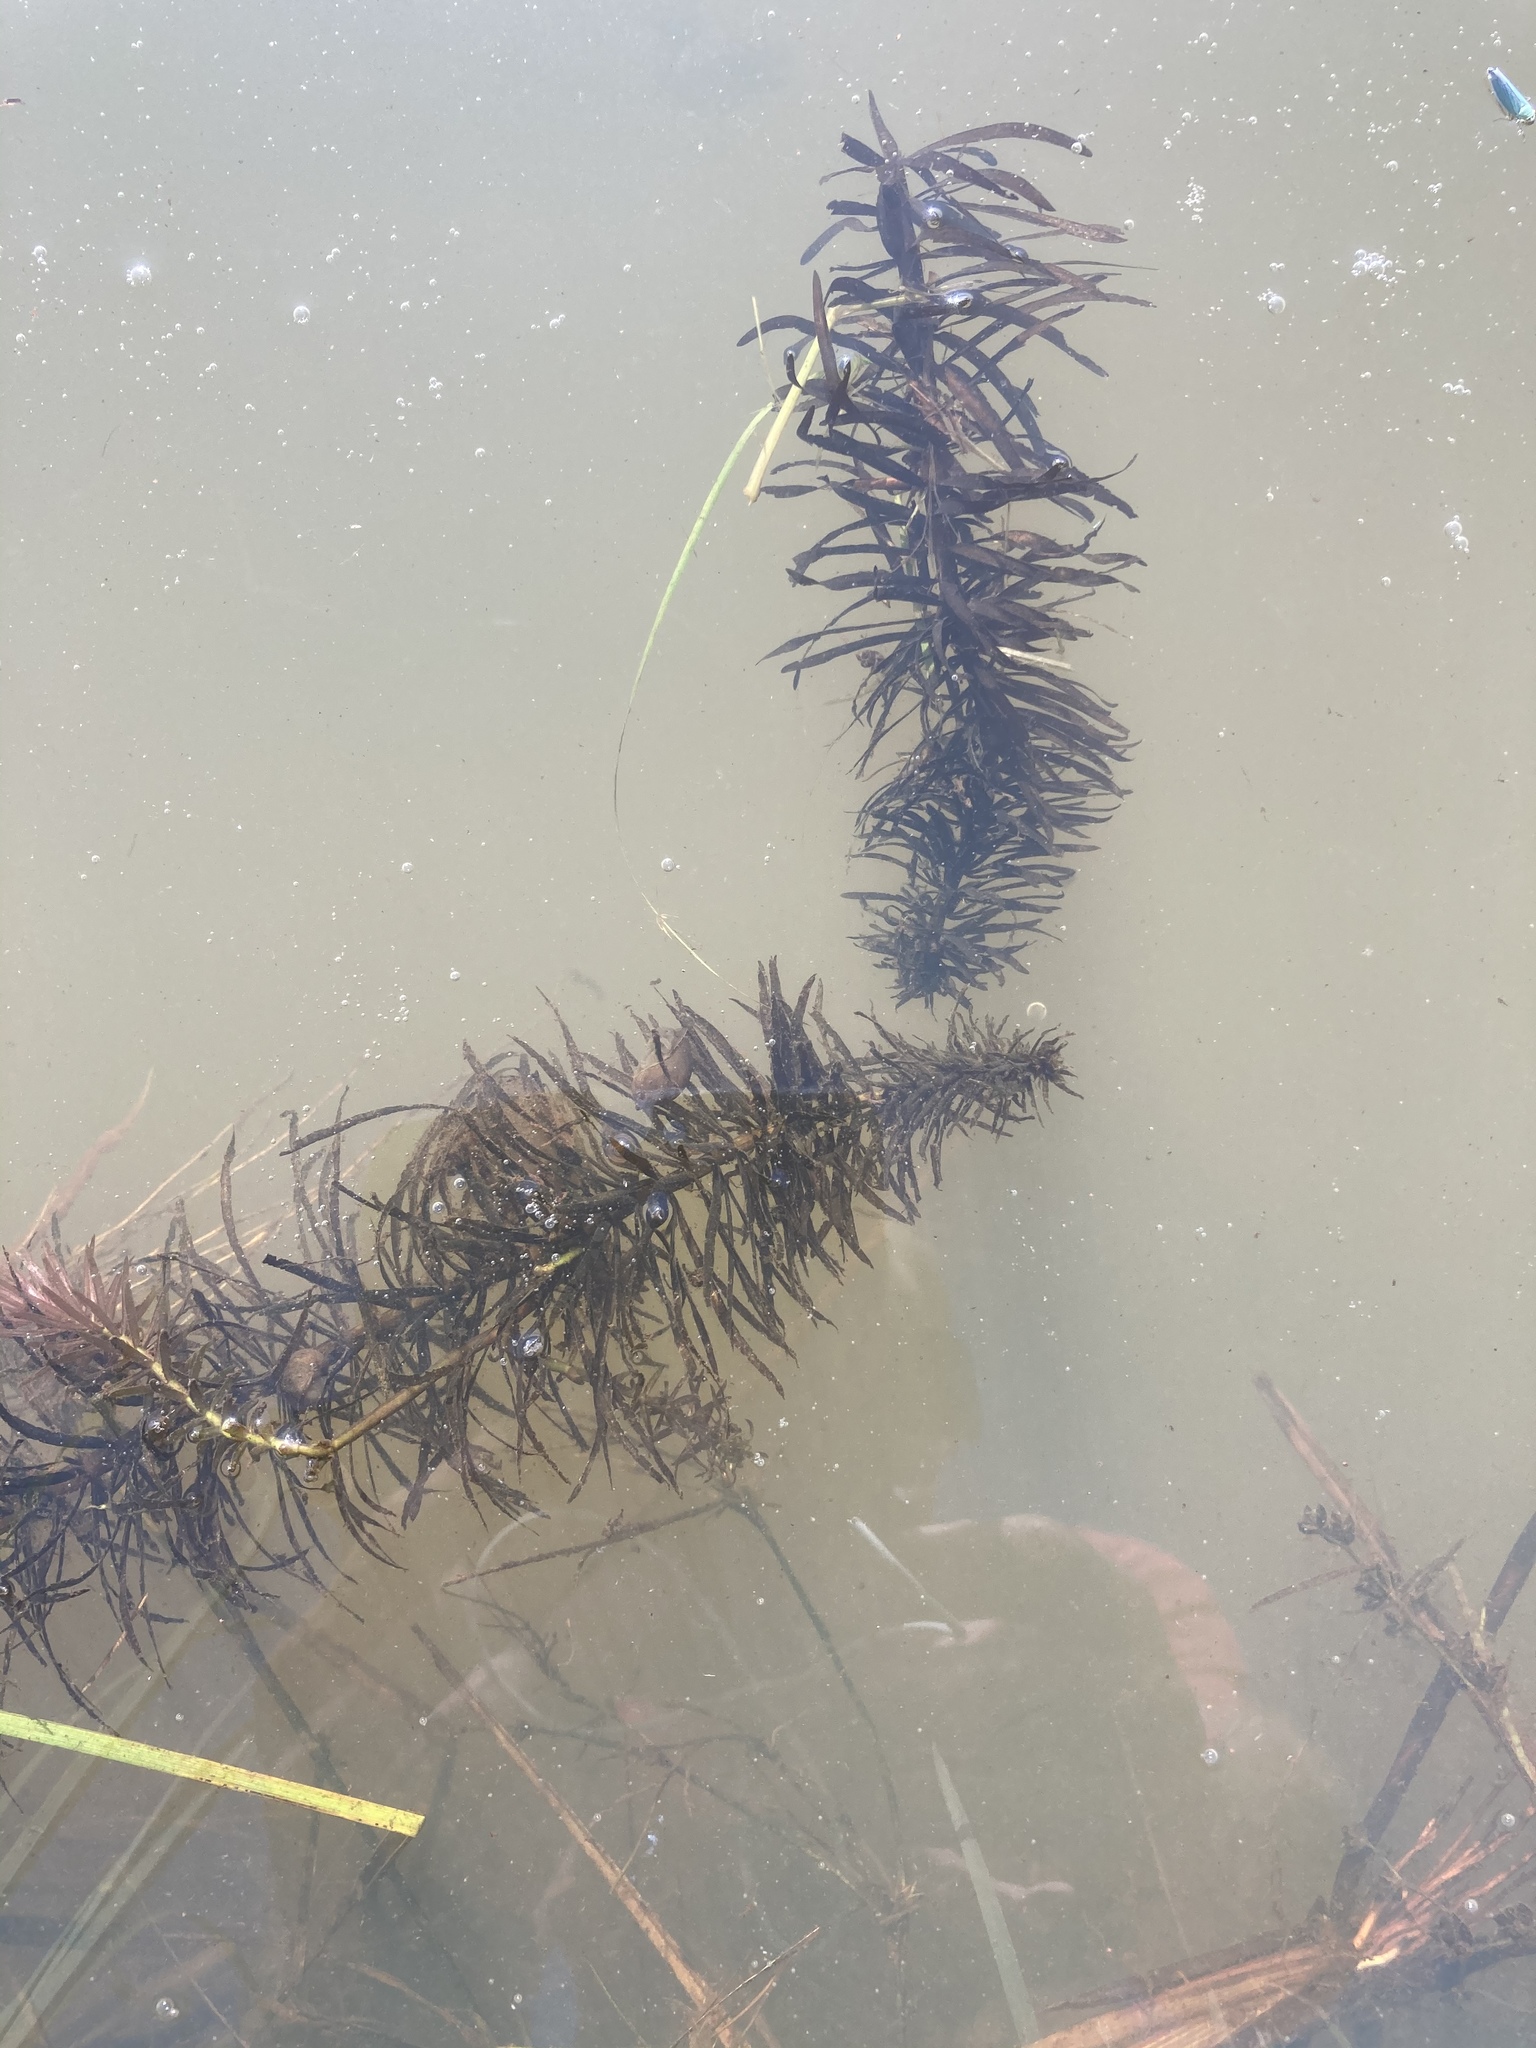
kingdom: Plantae
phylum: Tracheophyta
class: Magnoliopsida
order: Lamiales
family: Plantaginaceae
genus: Hippuris
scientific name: Hippuris vulgaris
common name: Mare's-tail
